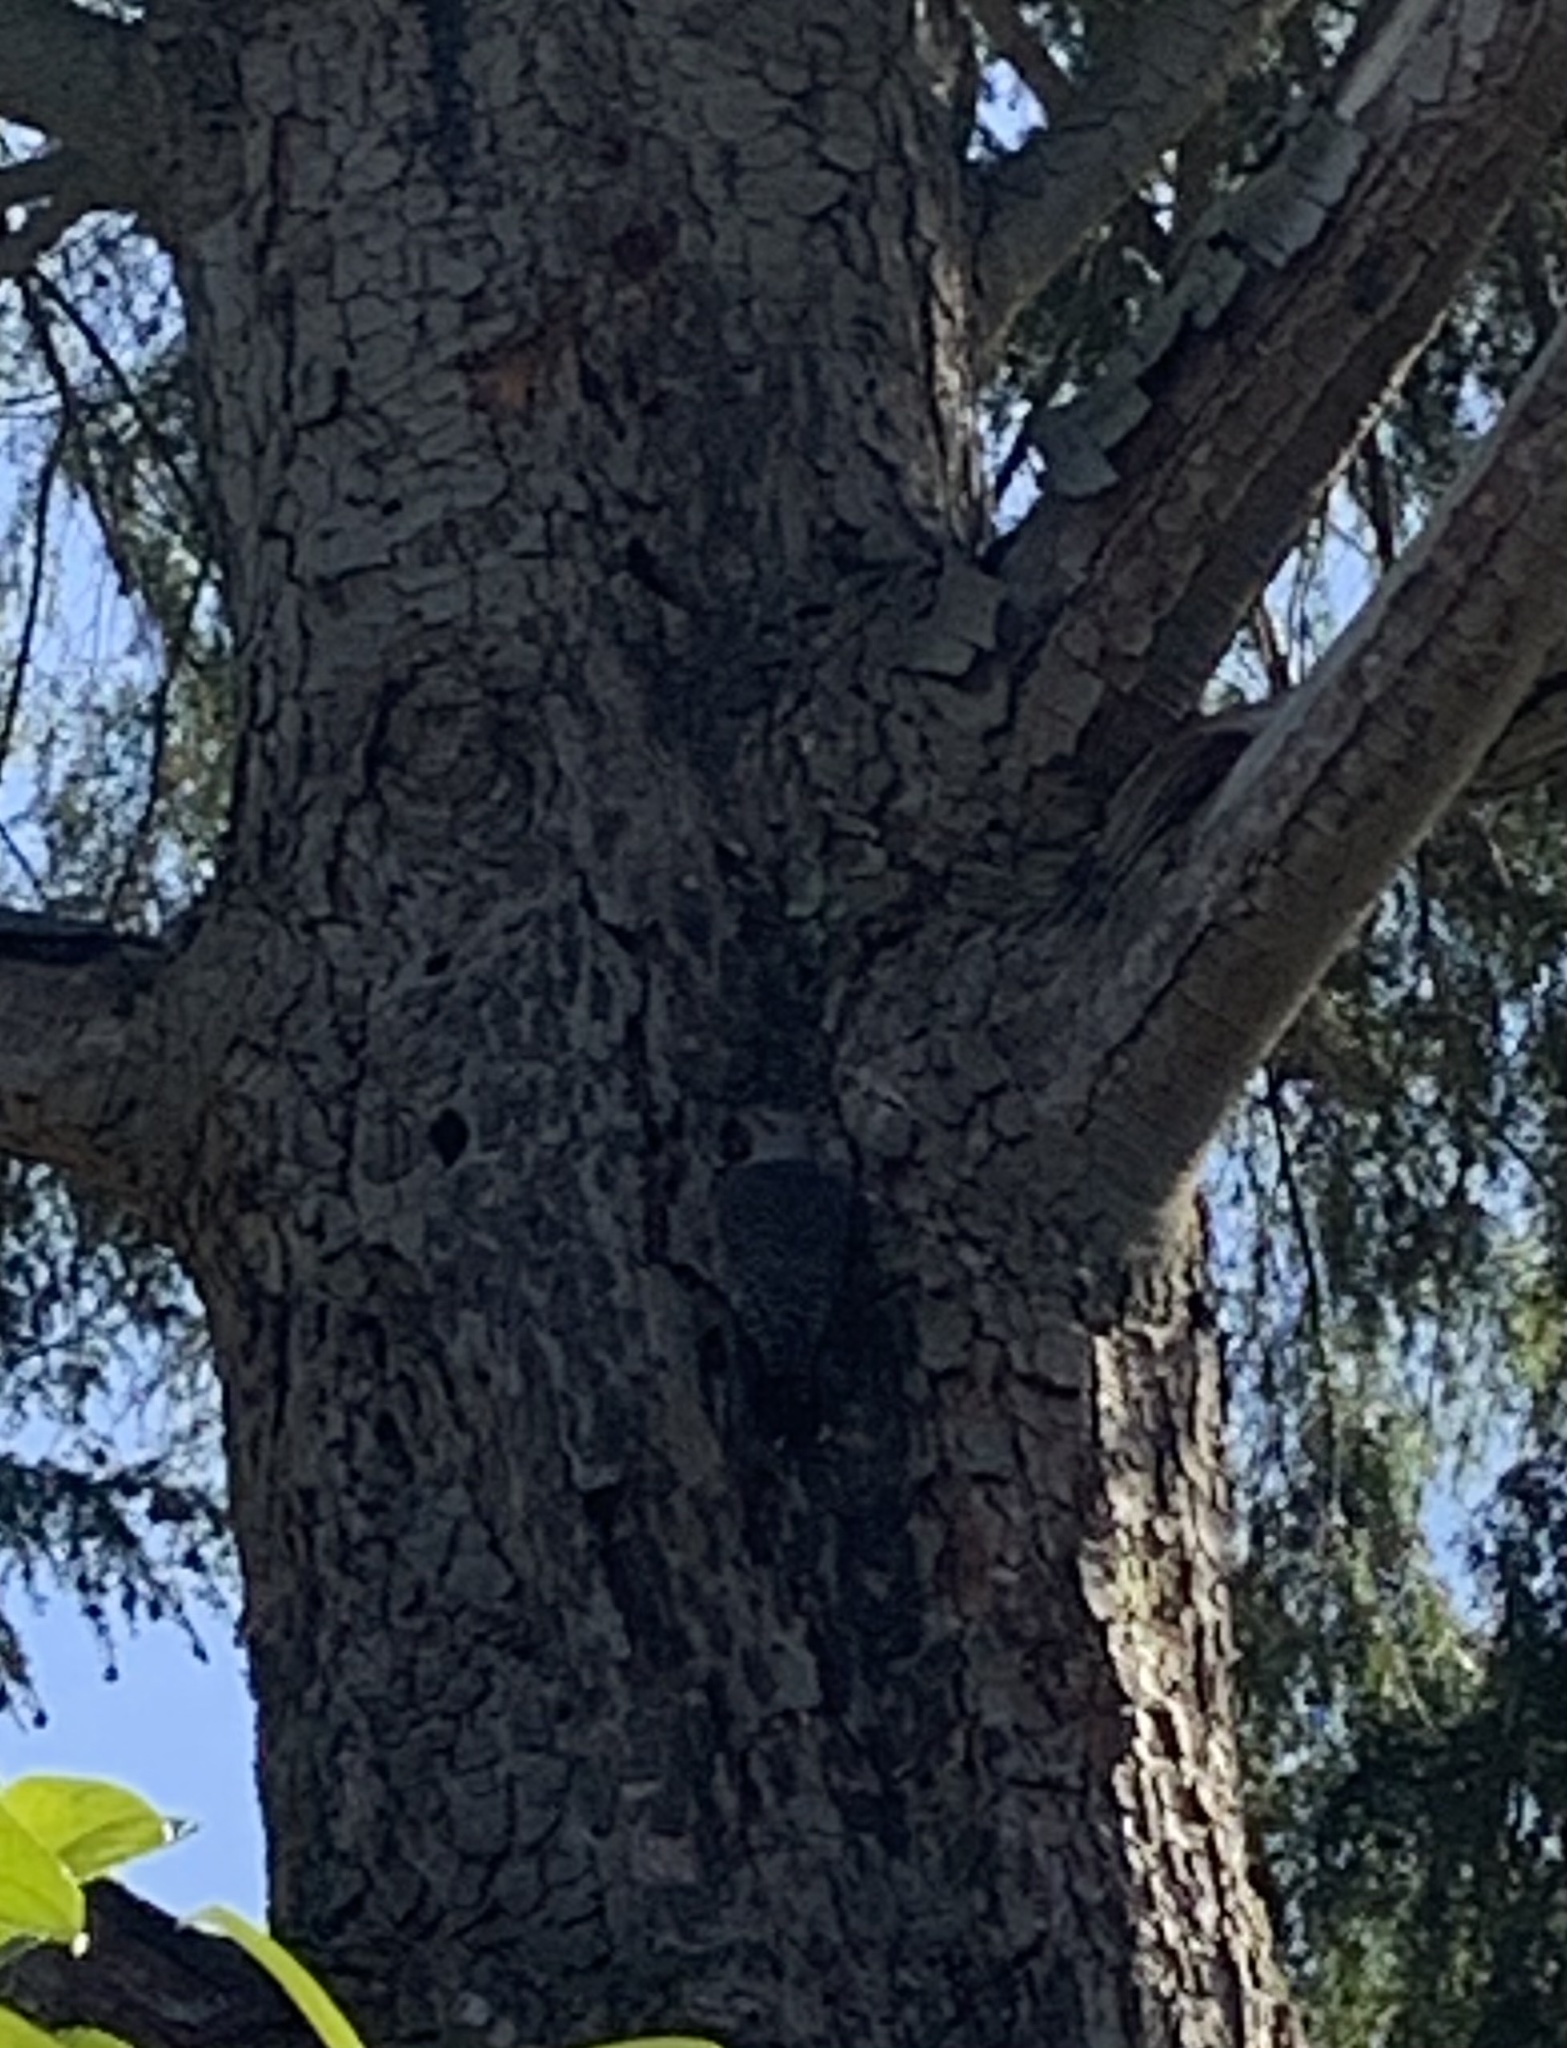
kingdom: Animalia
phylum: Chordata
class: Aves
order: Piciformes
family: Picidae
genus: Colaptes
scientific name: Colaptes auratus
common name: Northern flicker
